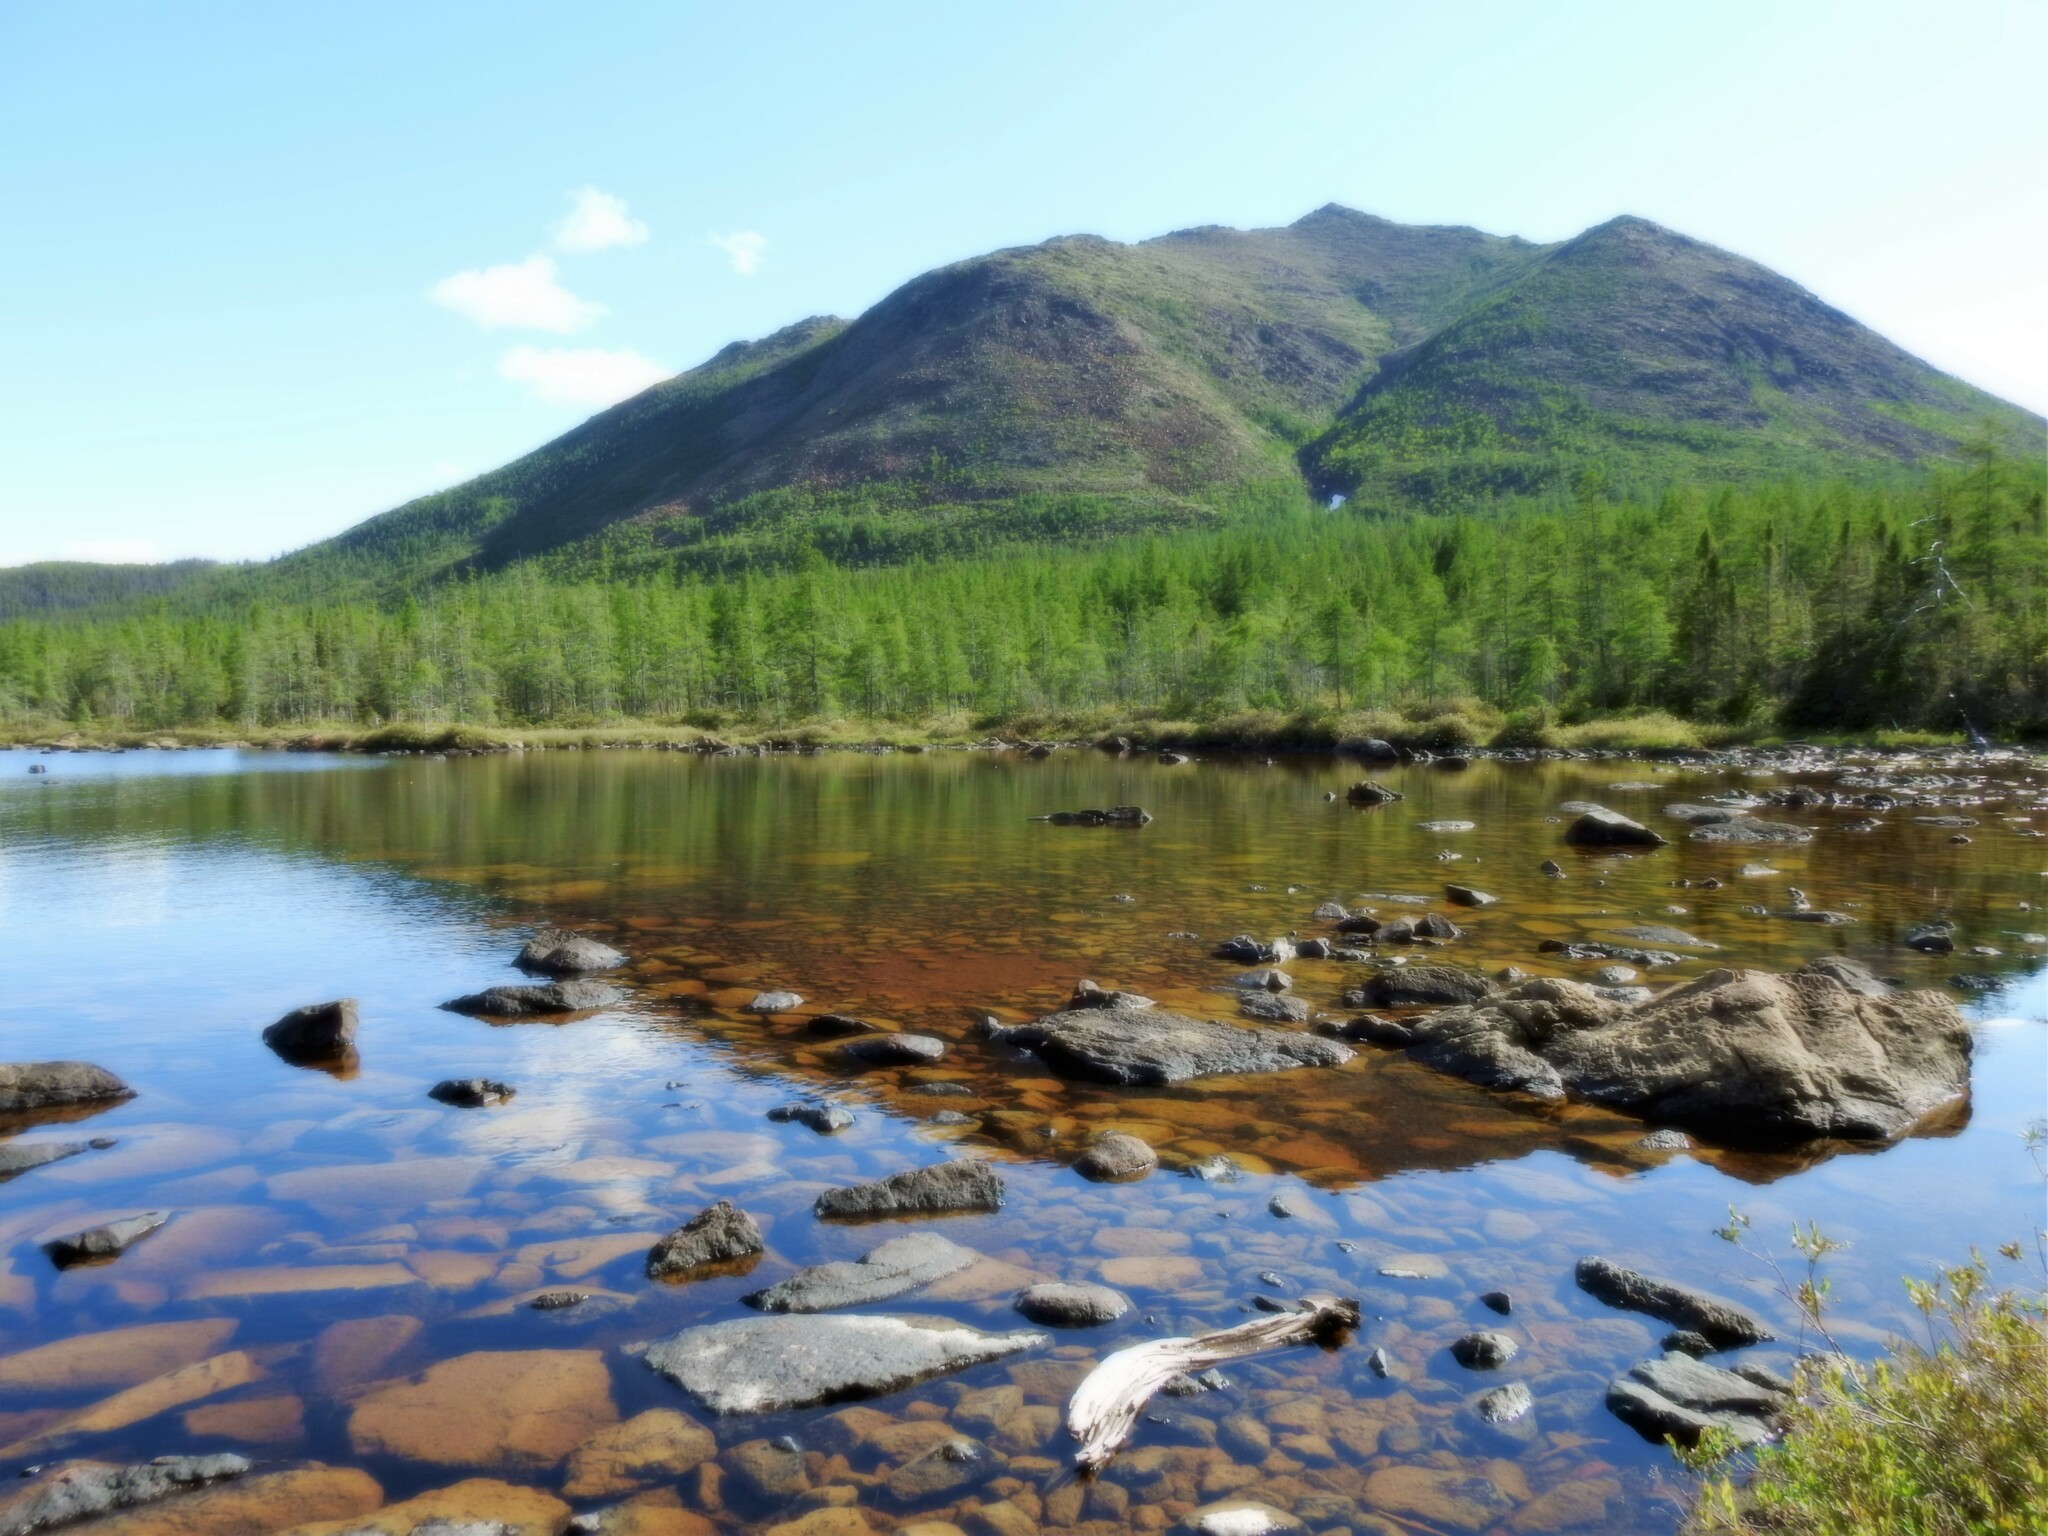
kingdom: Plantae
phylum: Tracheophyta
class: Pinopsida
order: Pinales
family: Pinaceae
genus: Larix
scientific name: Larix laricina
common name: American larch
